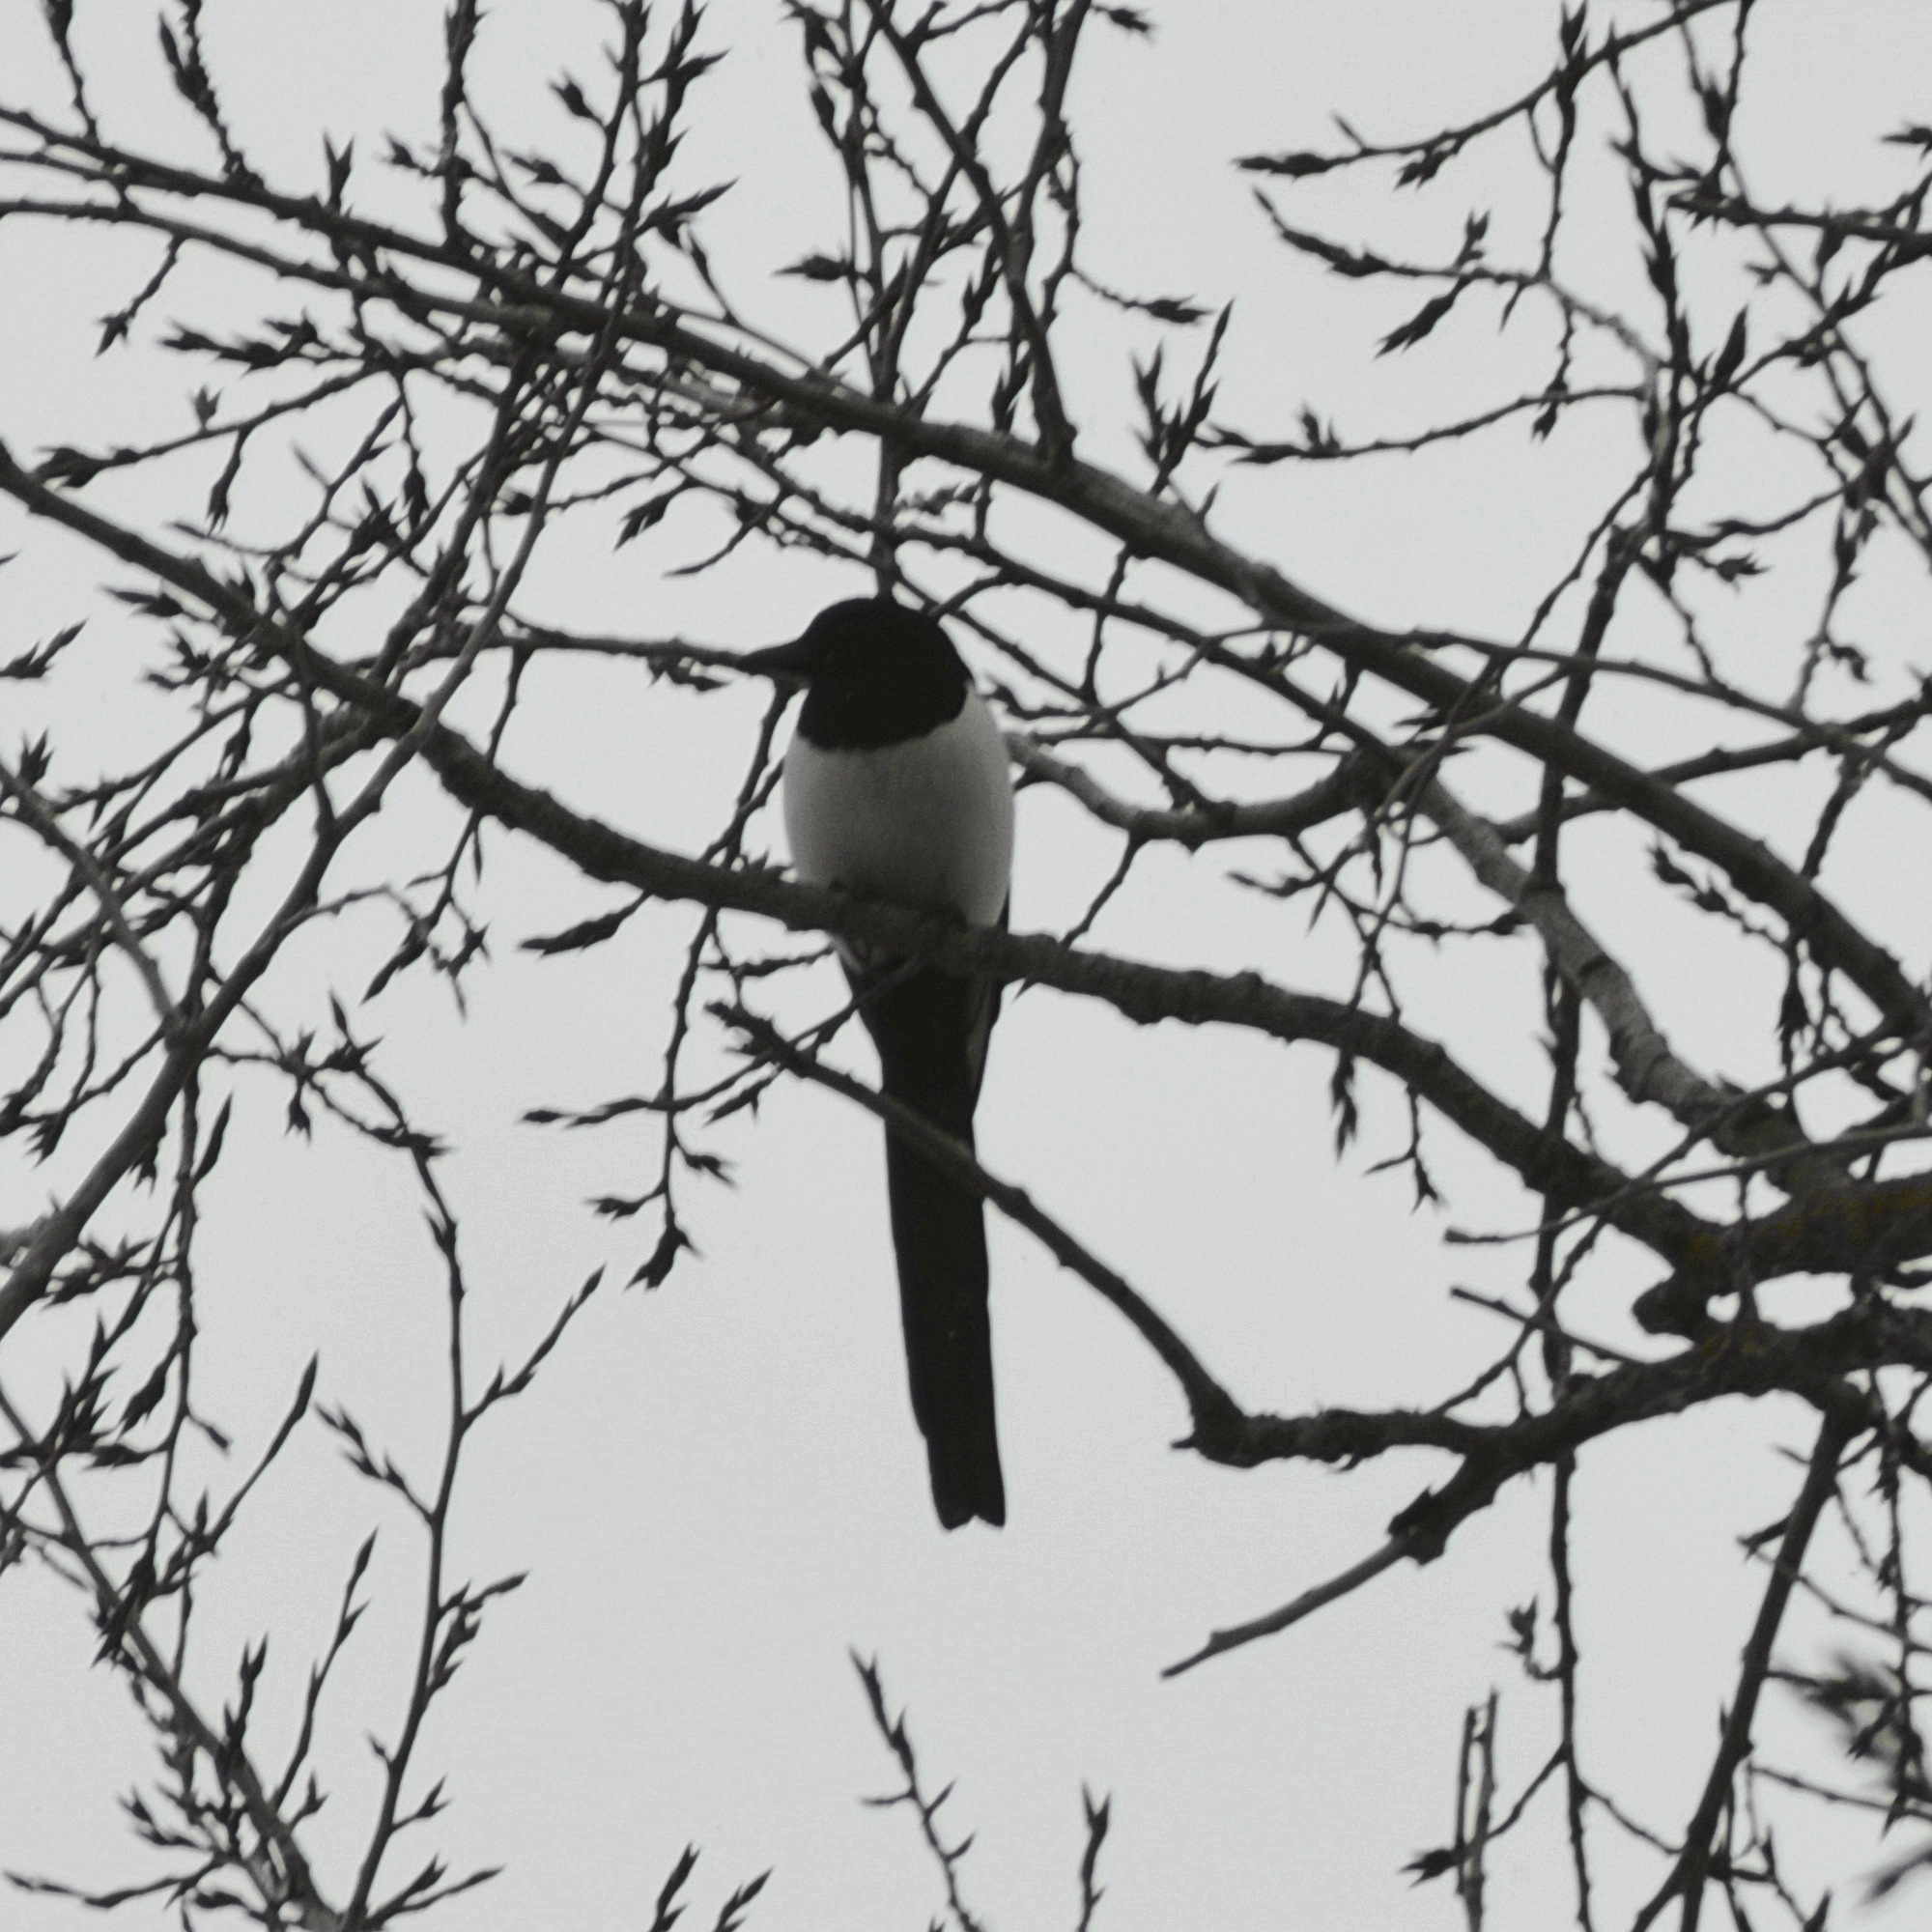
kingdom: Animalia
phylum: Chordata
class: Aves
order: Passeriformes
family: Corvidae
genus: Pica
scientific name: Pica pica
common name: Eurasian magpie
